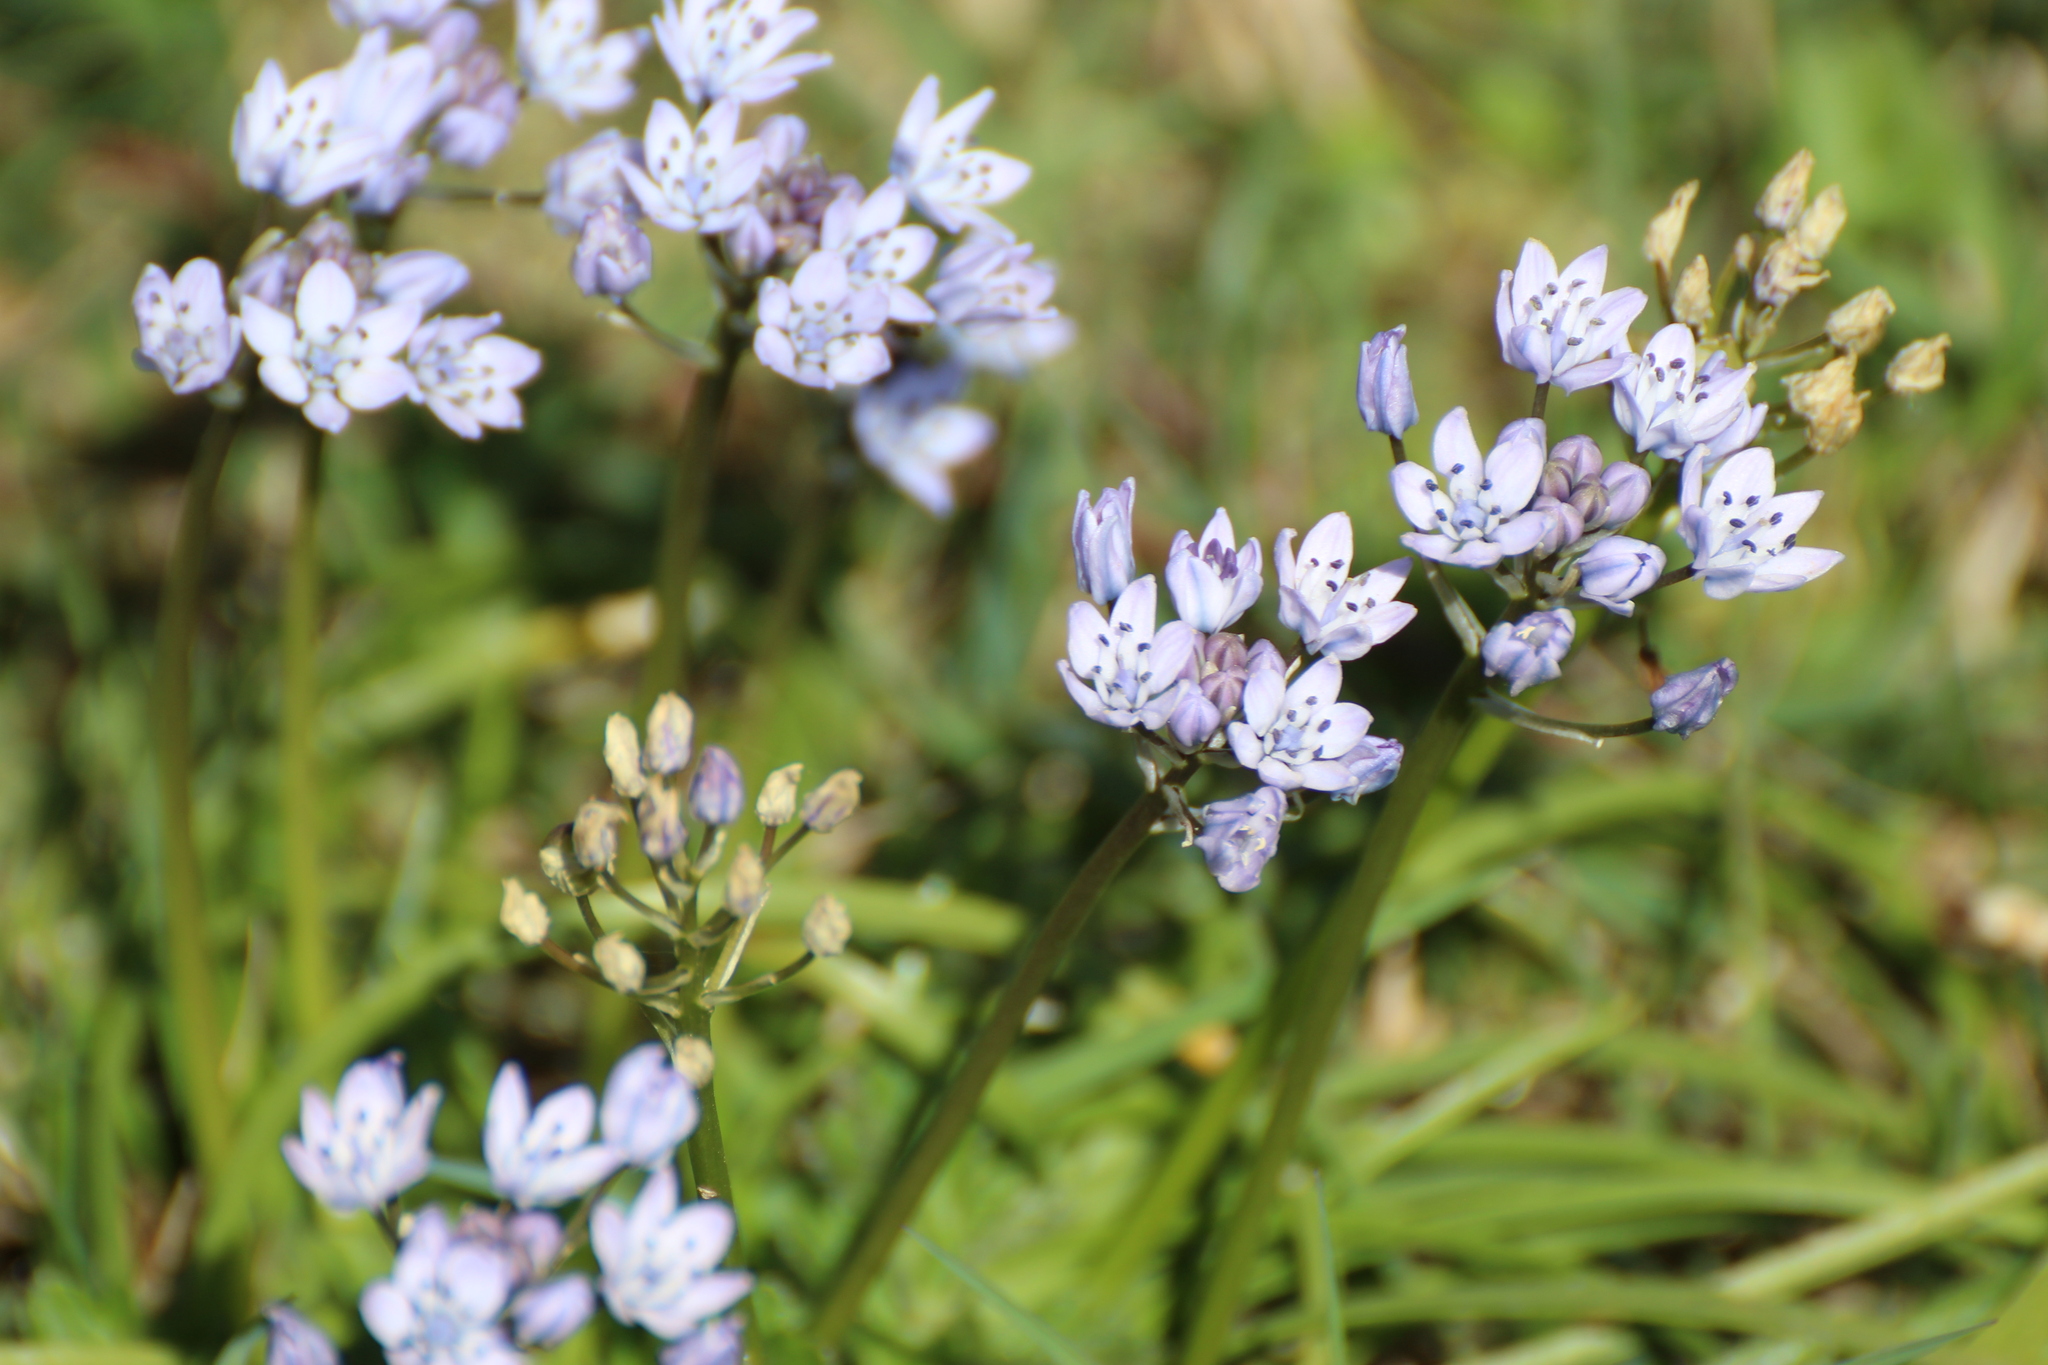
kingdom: Plantae
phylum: Tracheophyta
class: Liliopsida
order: Asparagales
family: Asparagaceae
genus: Scilla
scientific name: Scilla verna
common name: Spring squill
